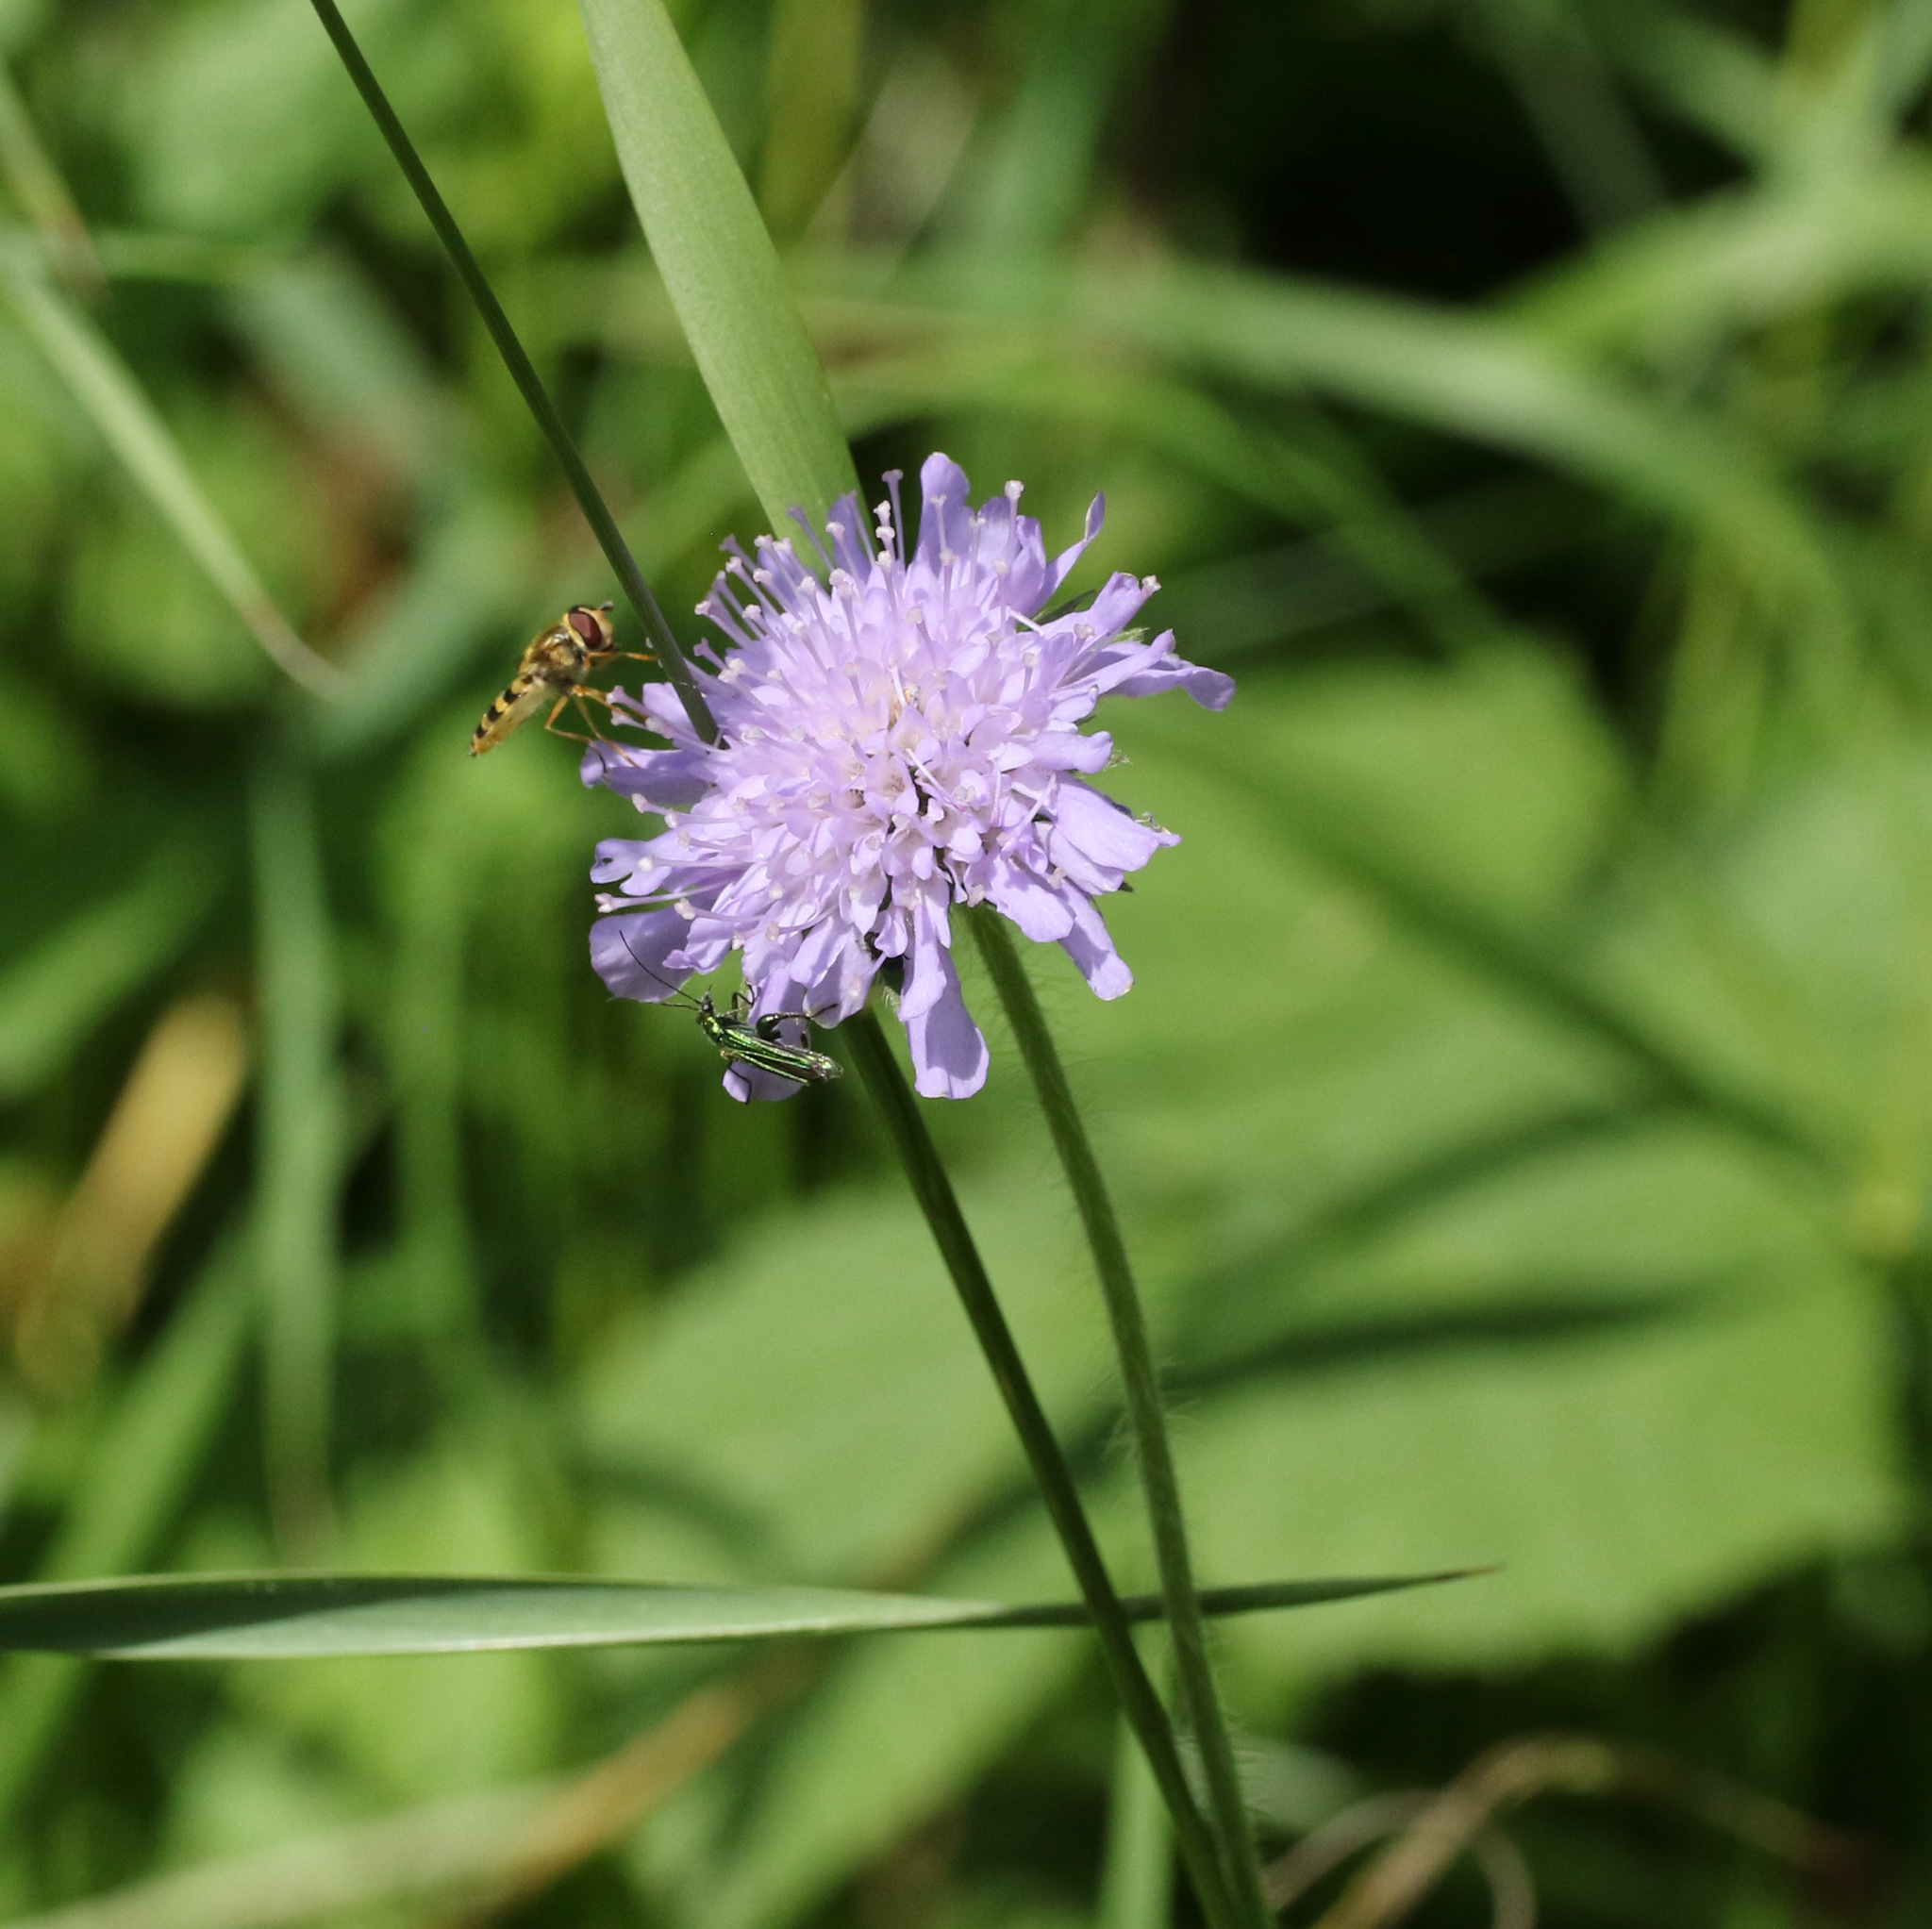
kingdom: Plantae
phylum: Tracheophyta
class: Magnoliopsida
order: Dipsacales
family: Caprifoliaceae
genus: Knautia
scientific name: Knautia arvensis
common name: Field scabiosa
